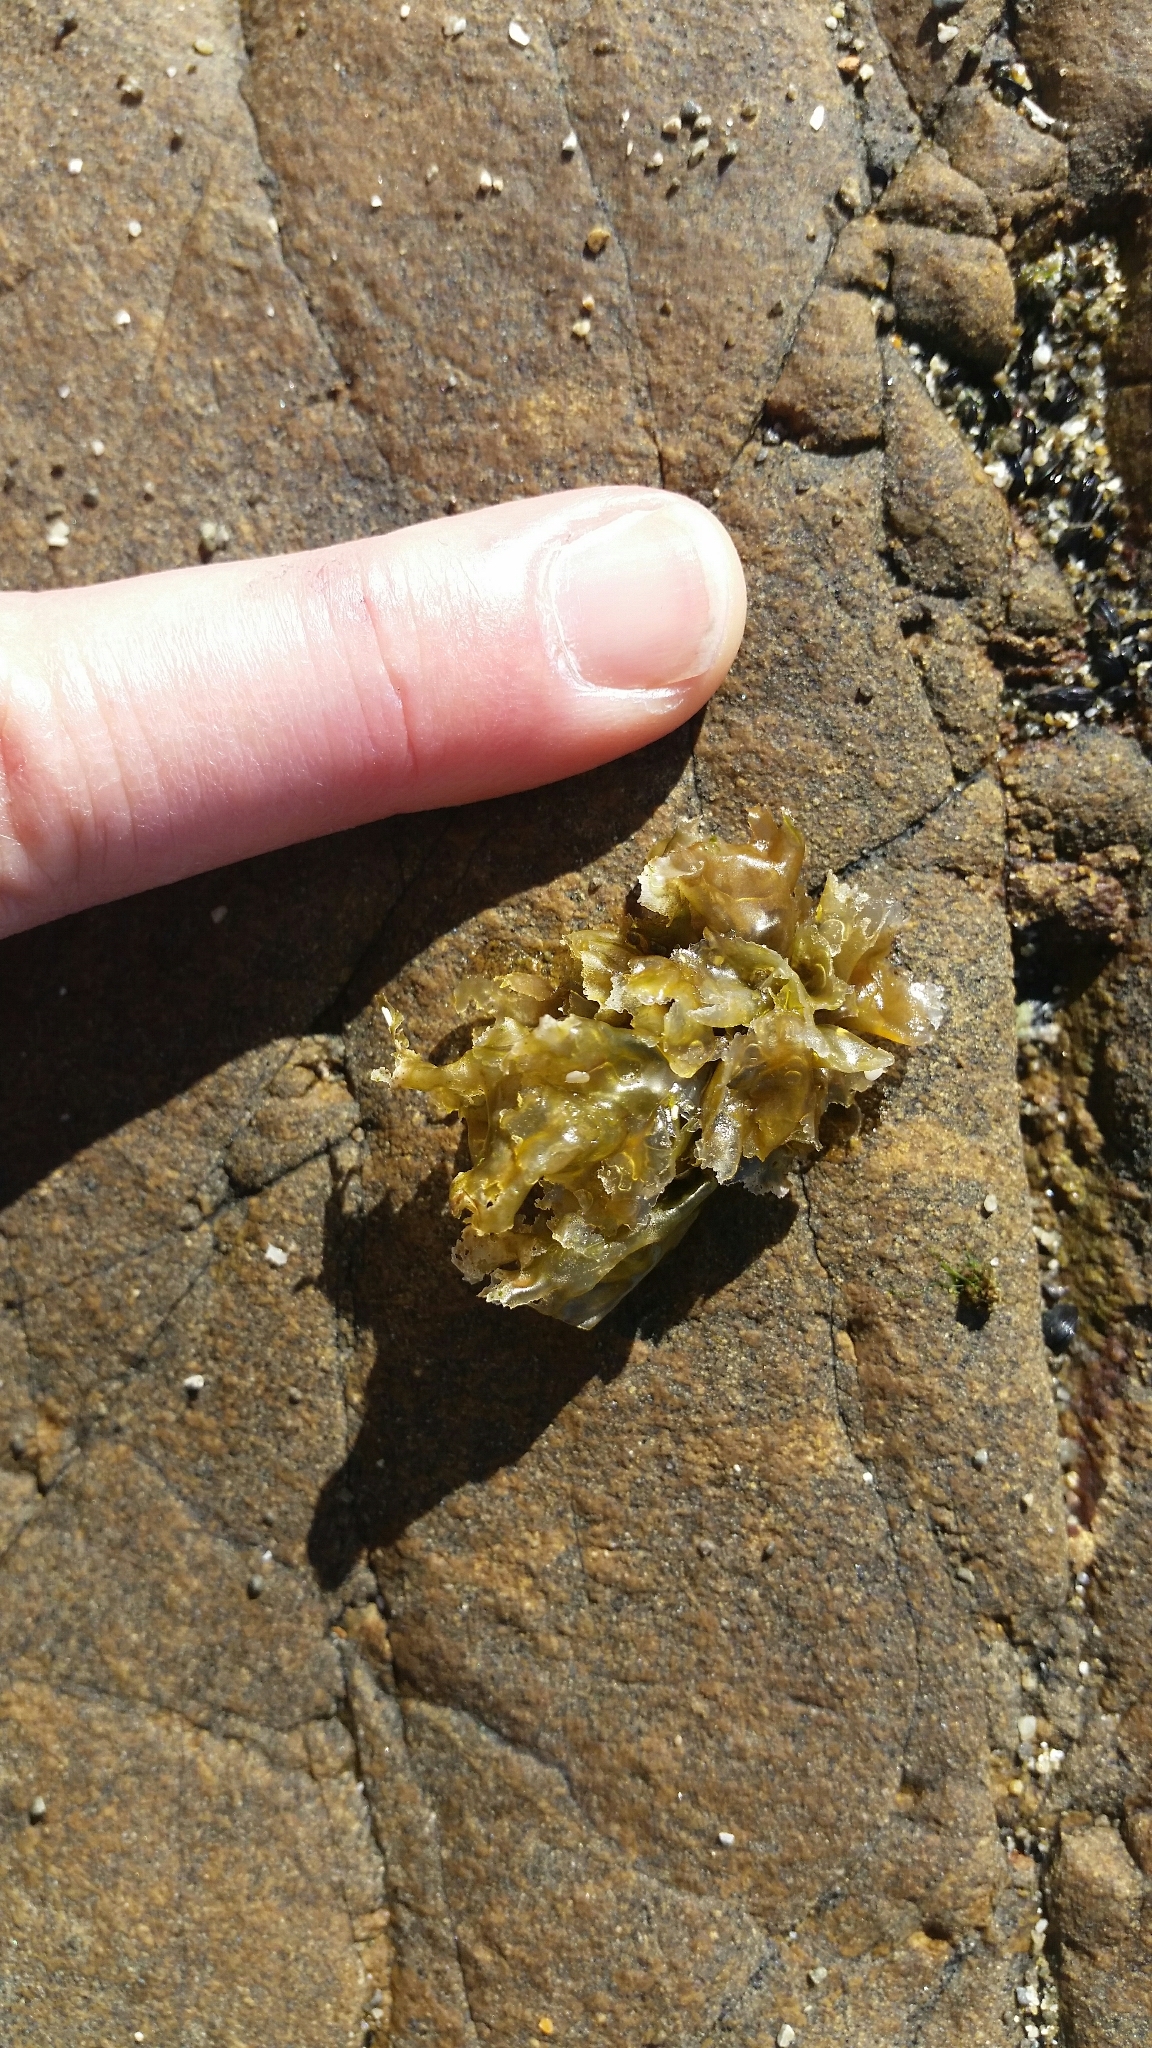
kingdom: Plantae
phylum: Rhodophyta
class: Bangiophyceae
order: Bangiales
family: Bangiaceae
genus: Clymene
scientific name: Clymene coleana
